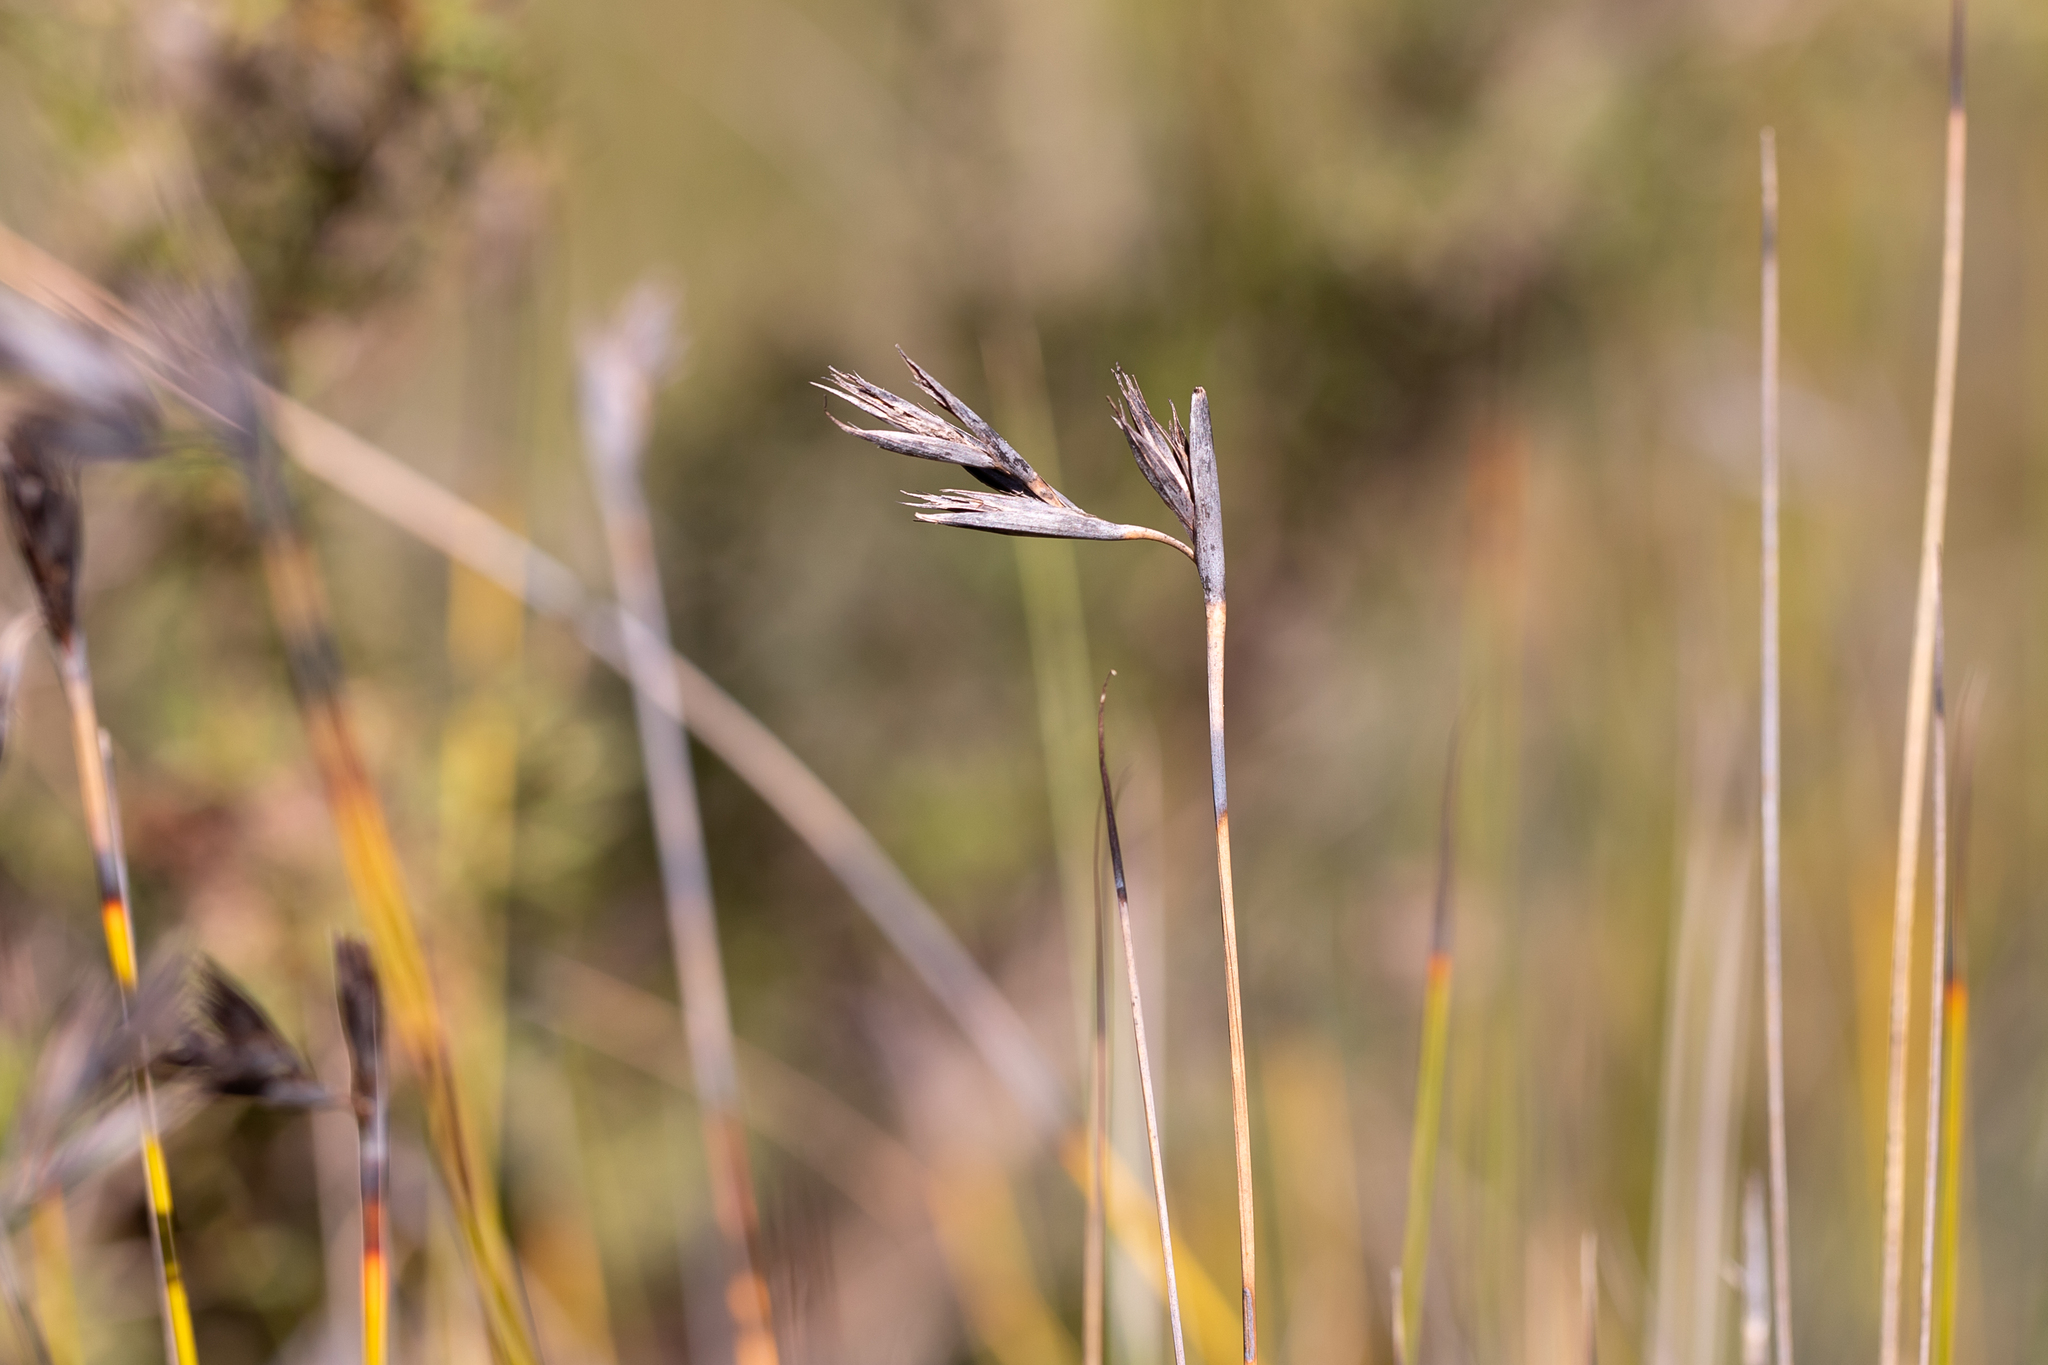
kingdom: Plantae
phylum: Tracheophyta
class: Liliopsida
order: Poales
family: Cyperaceae
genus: Lepidosperma
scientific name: Lepidosperma carphoides
